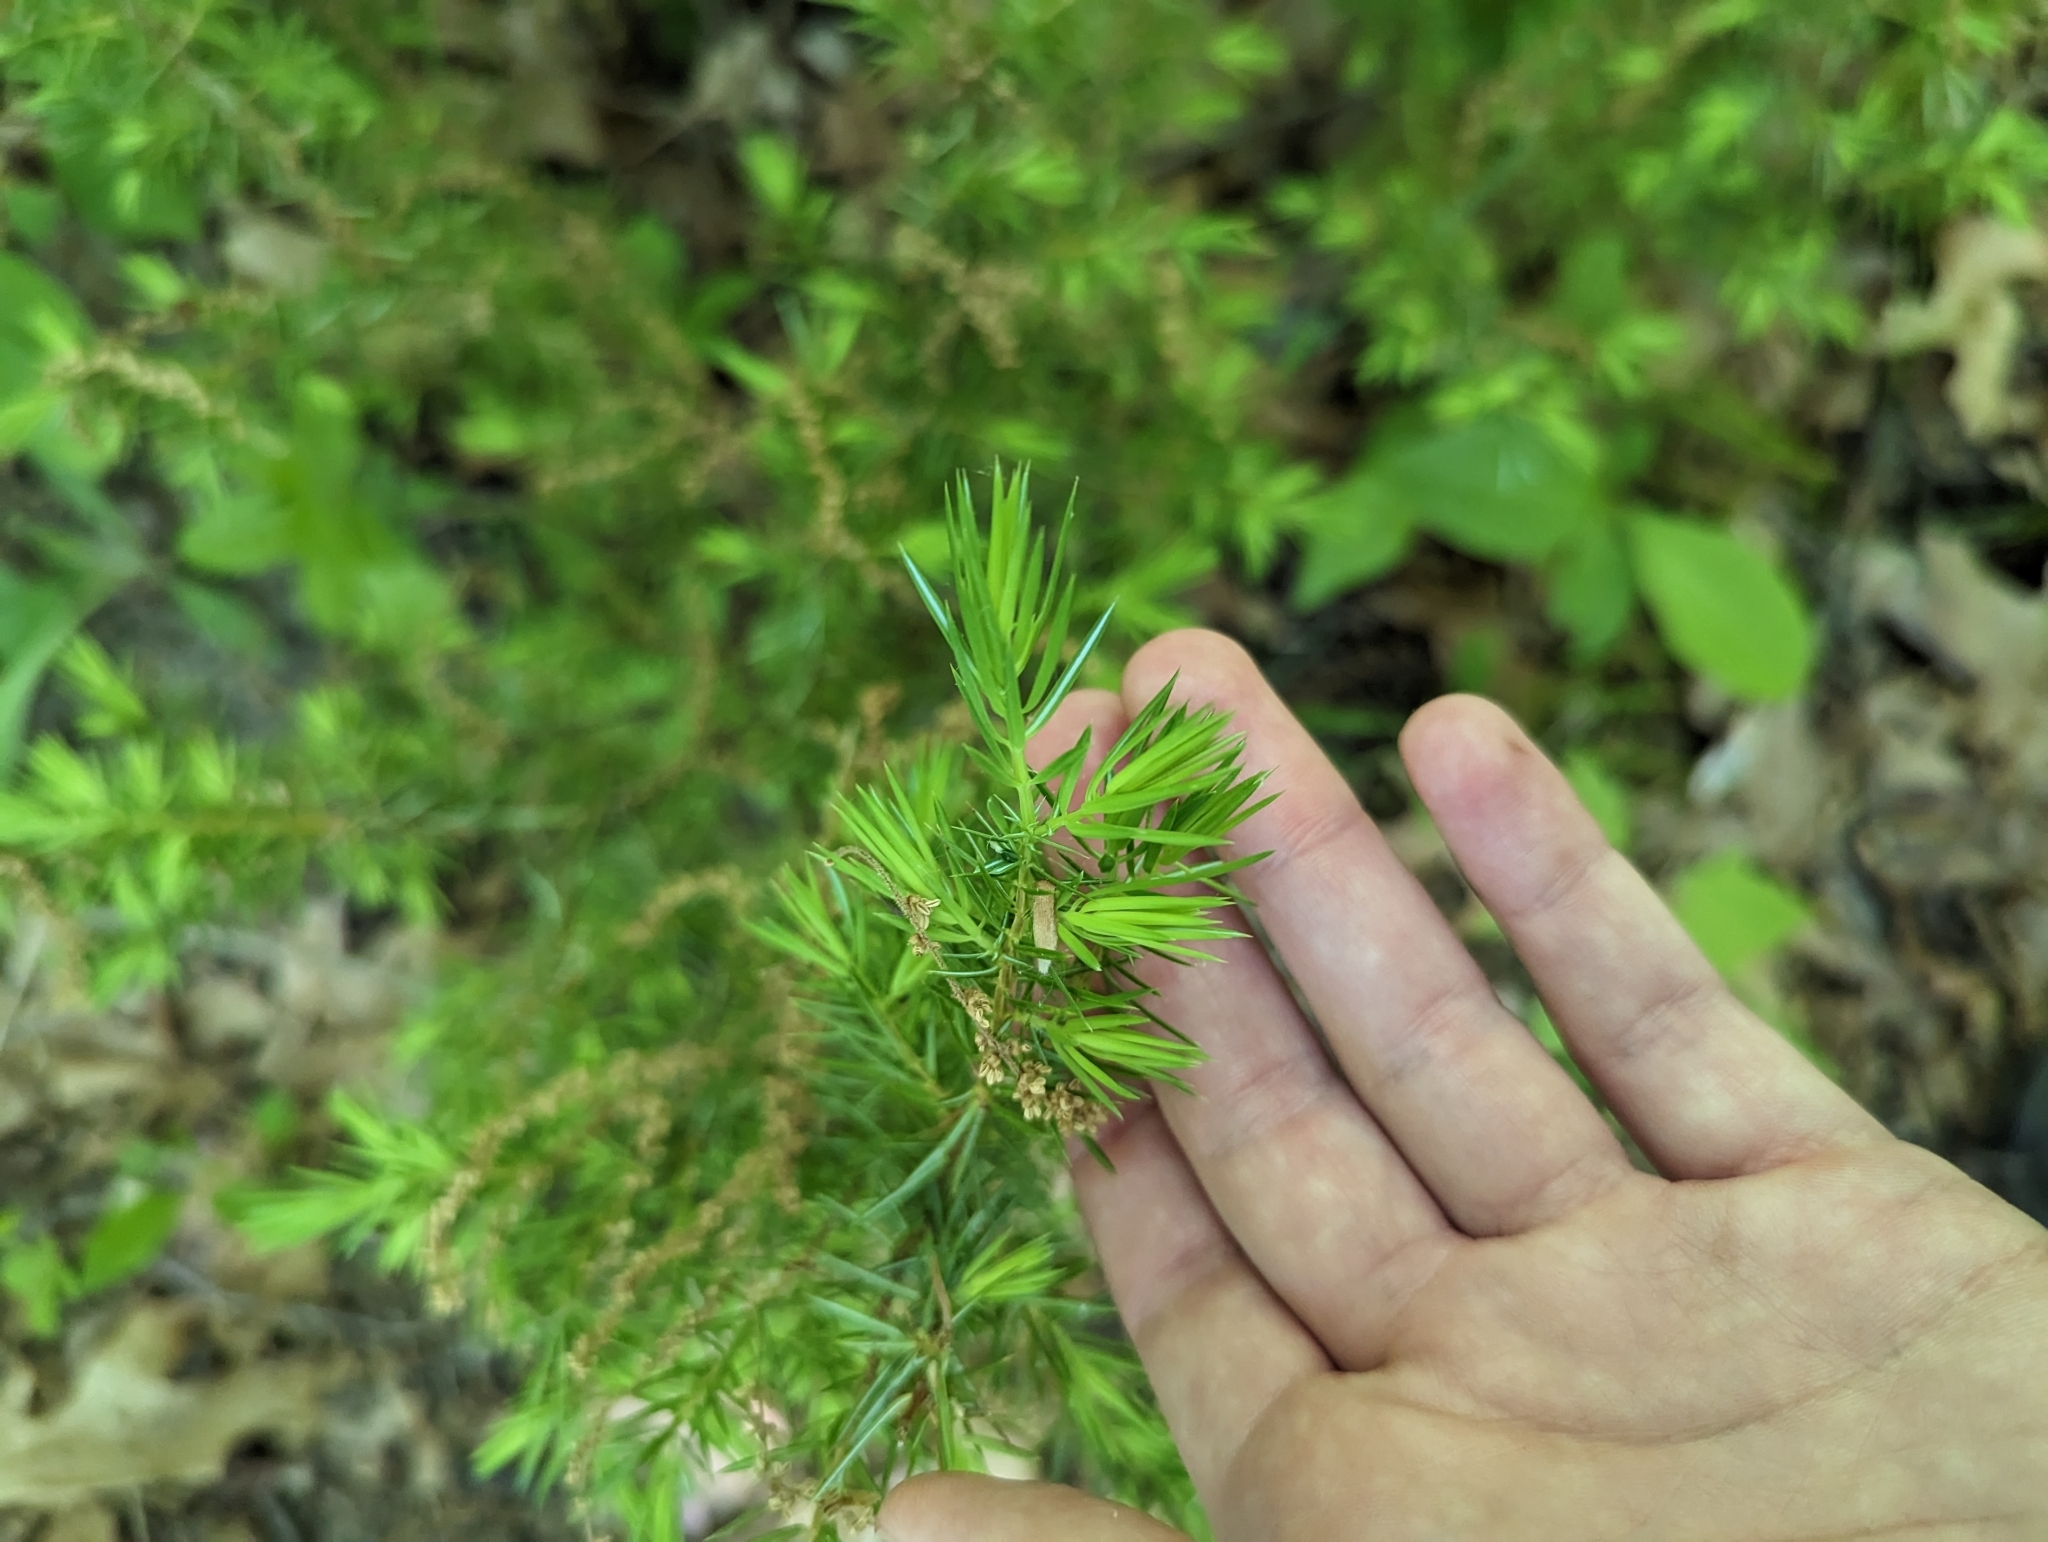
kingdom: Plantae
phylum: Tracheophyta
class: Pinopsida
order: Pinales
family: Cupressaceae
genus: Juniperus
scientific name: Juniperus virginiana
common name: Red juniper
